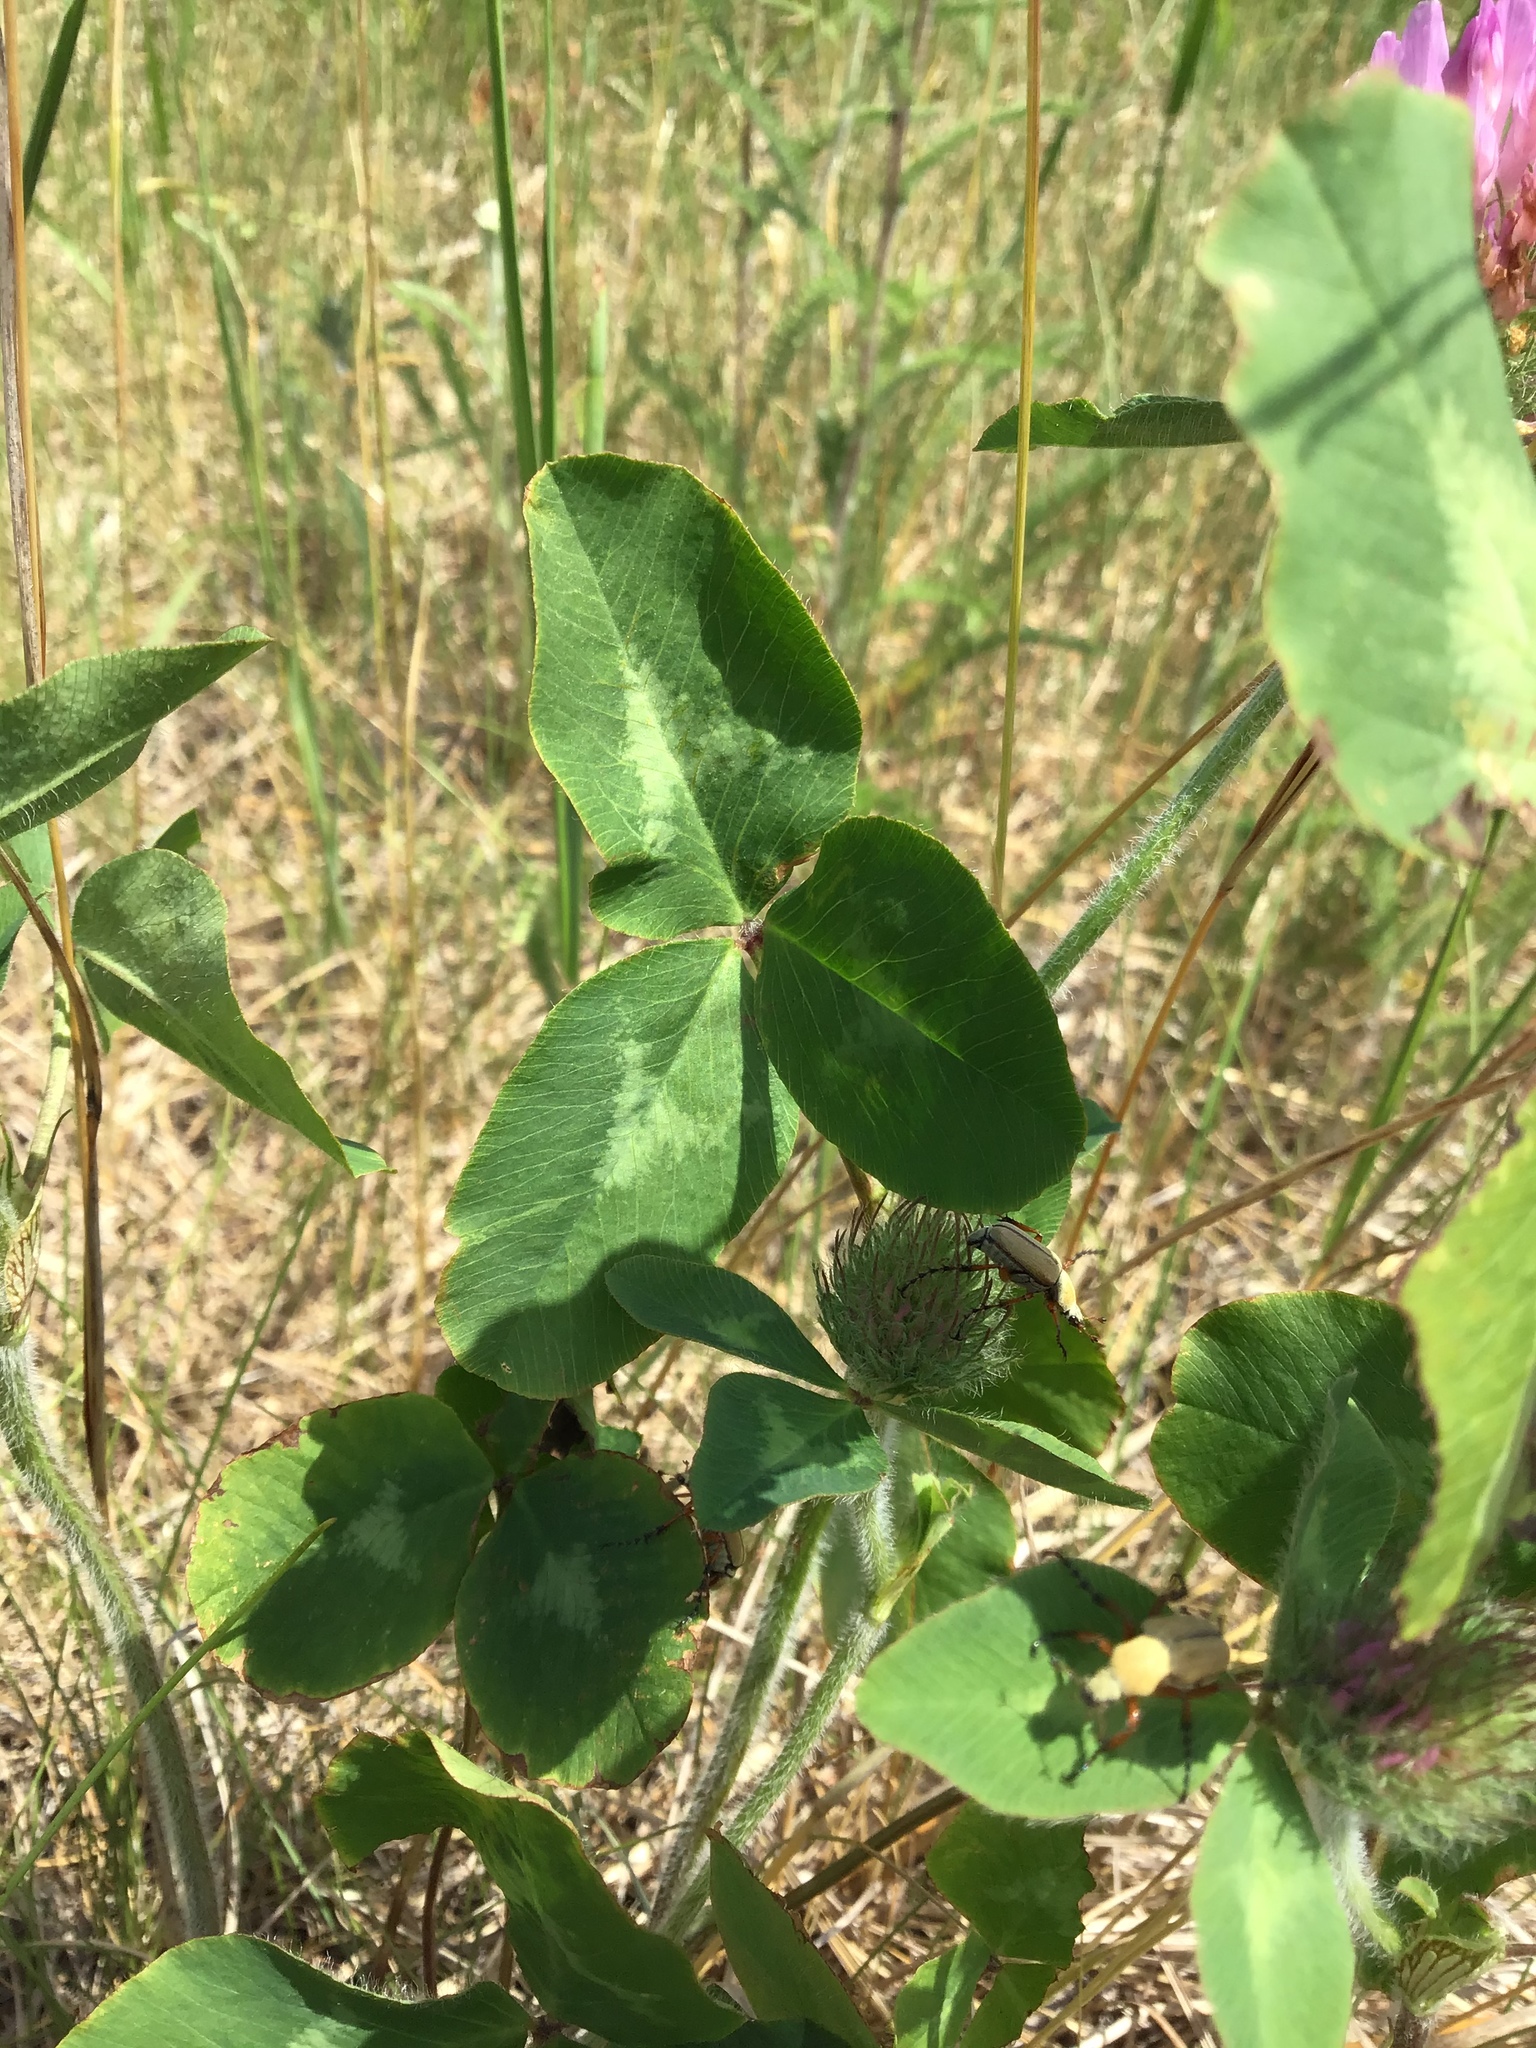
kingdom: Plantae
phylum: Tracheophyta
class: Magnoliopsida
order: Fabales
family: Fabaceae
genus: Trifolium
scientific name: Trifolium pratense
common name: Red clover
